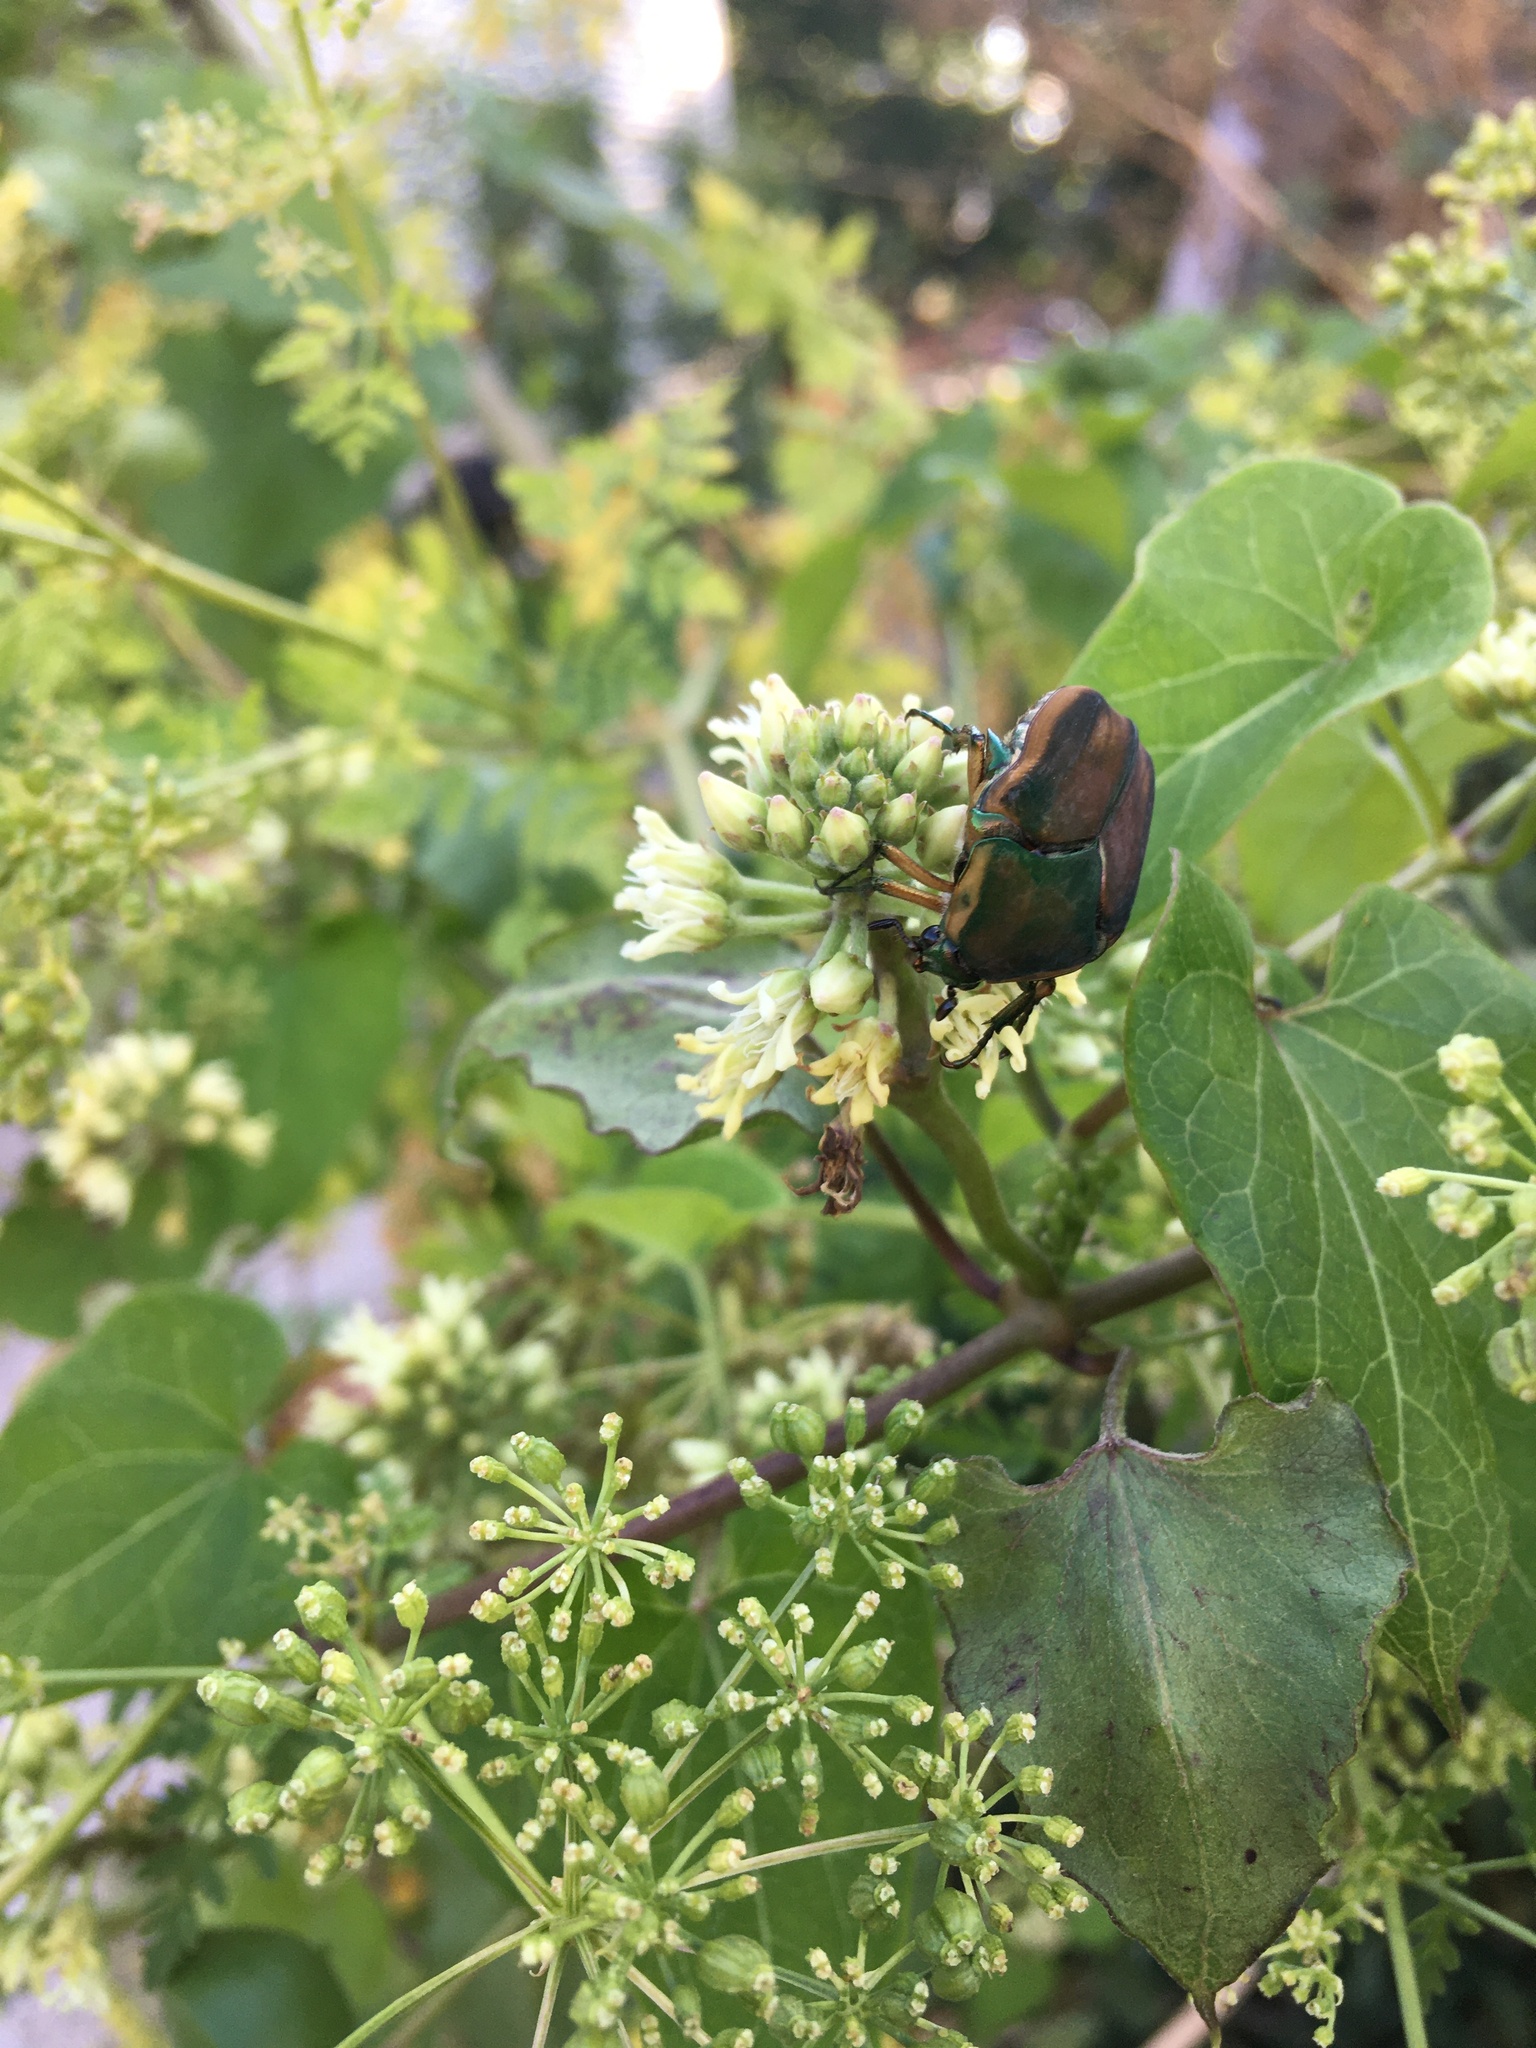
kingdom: Animalia
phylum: Arthropoda
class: Insecta
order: Coleoptera
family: Scarabaeidae
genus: Cotinis
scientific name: Cotinis nitida
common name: Common green june beetle
